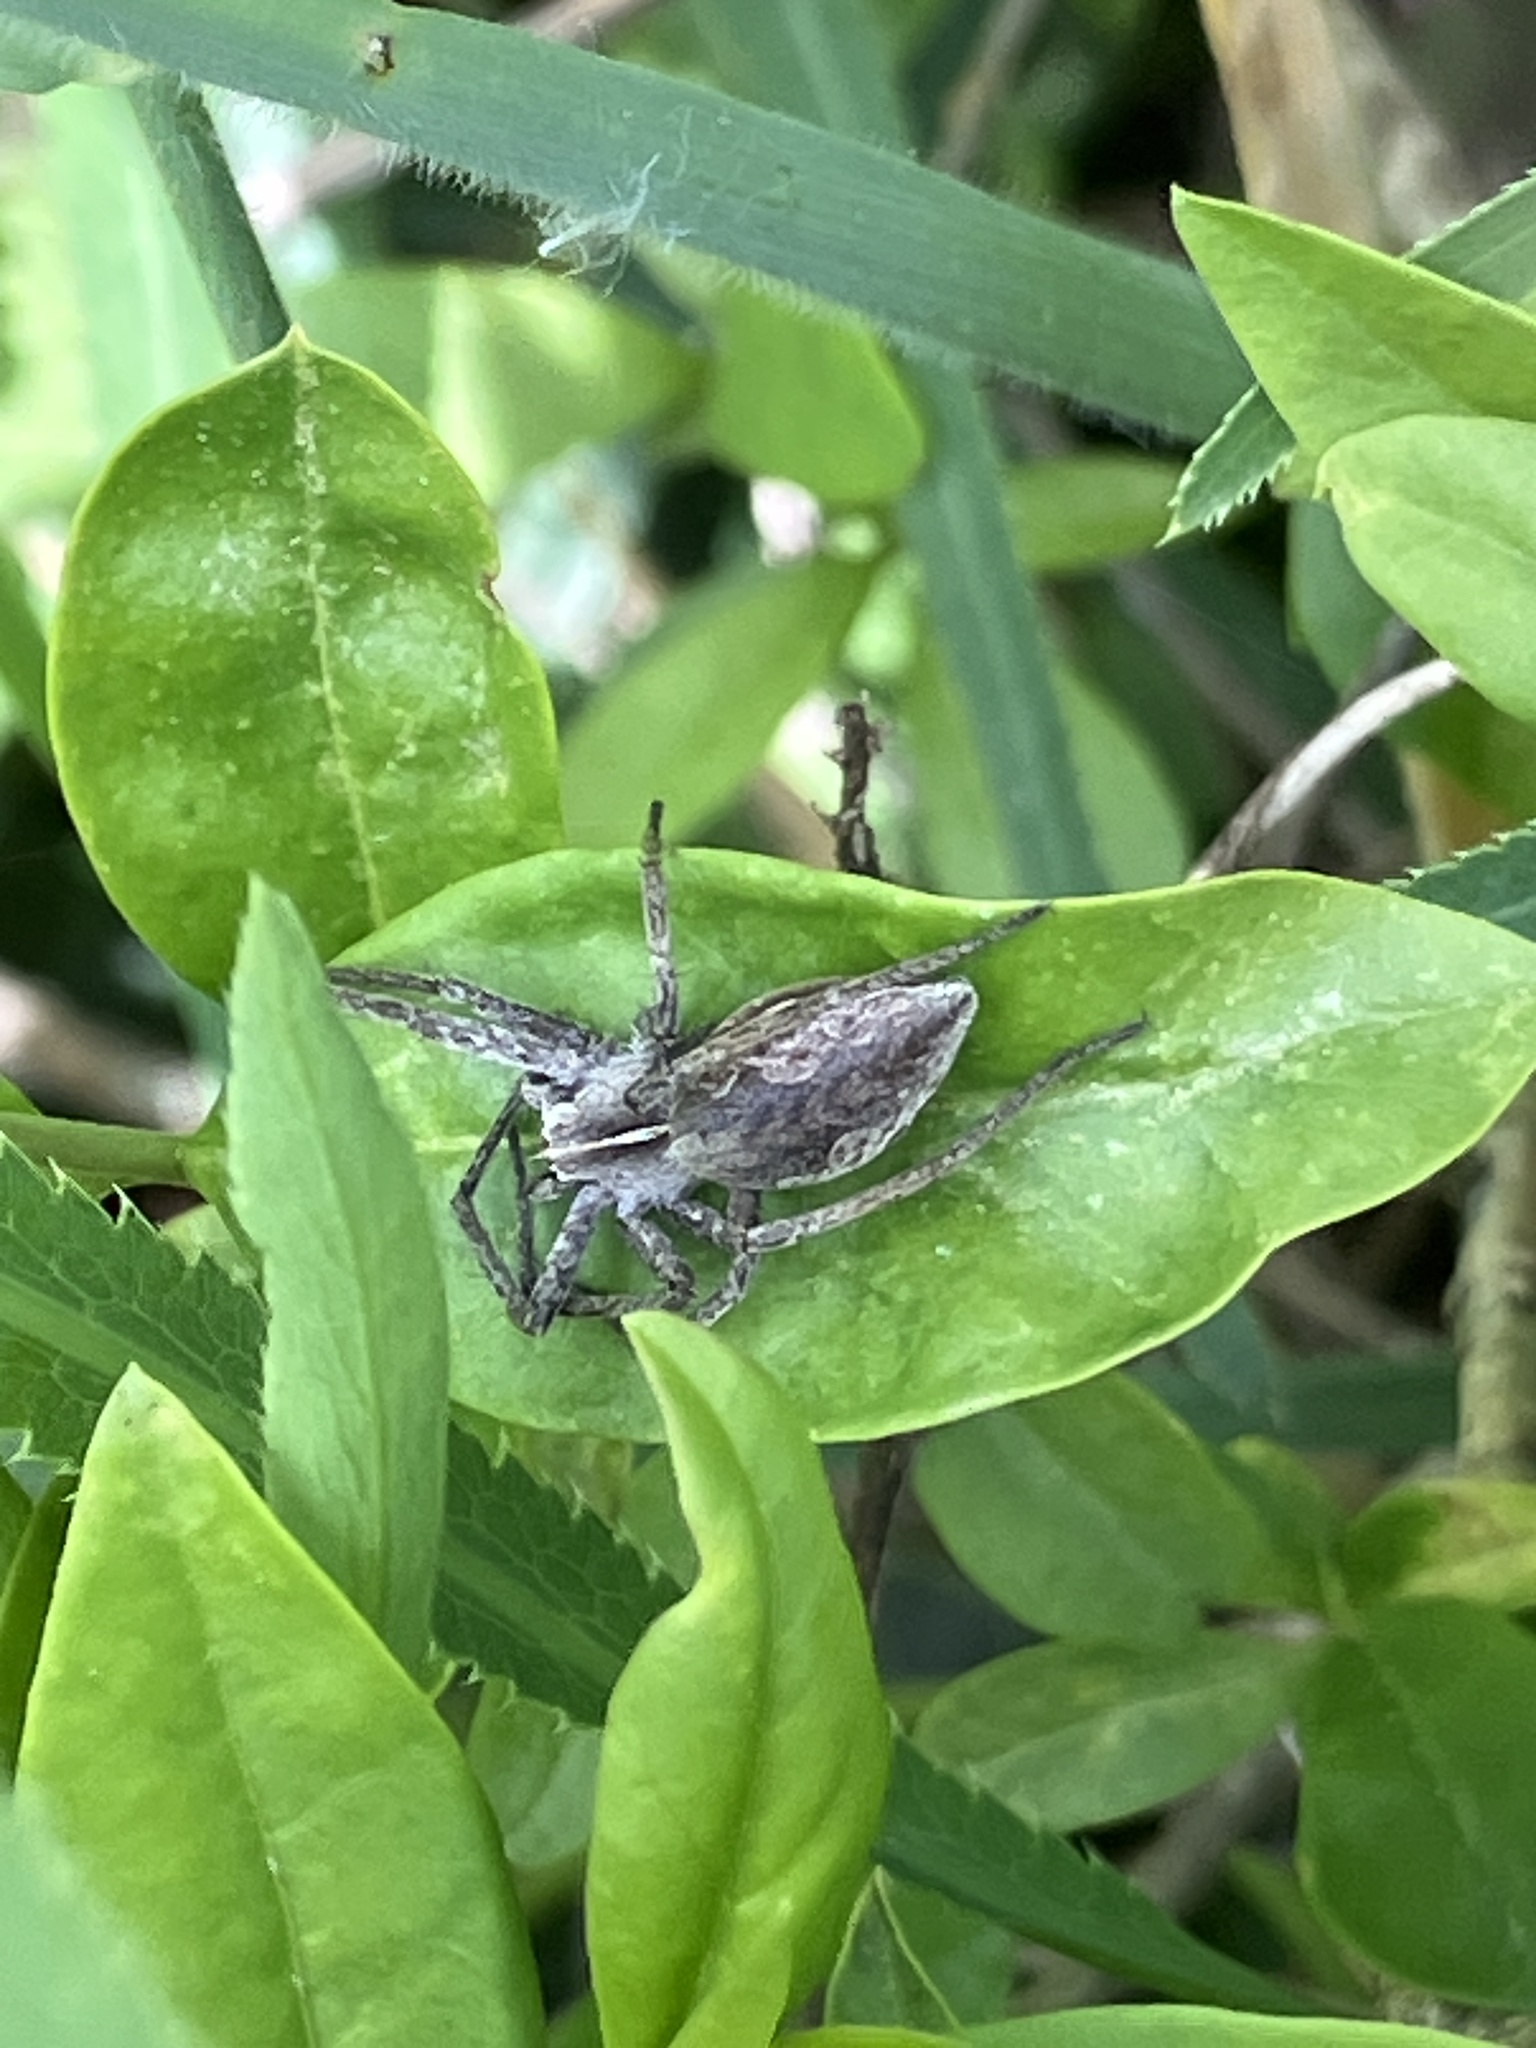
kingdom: Animalia
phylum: Arthropoda
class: Arachnida
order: Araneae
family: Pisauridae
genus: Pisaura
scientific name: Pisaura mirabilis
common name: Tent spider
